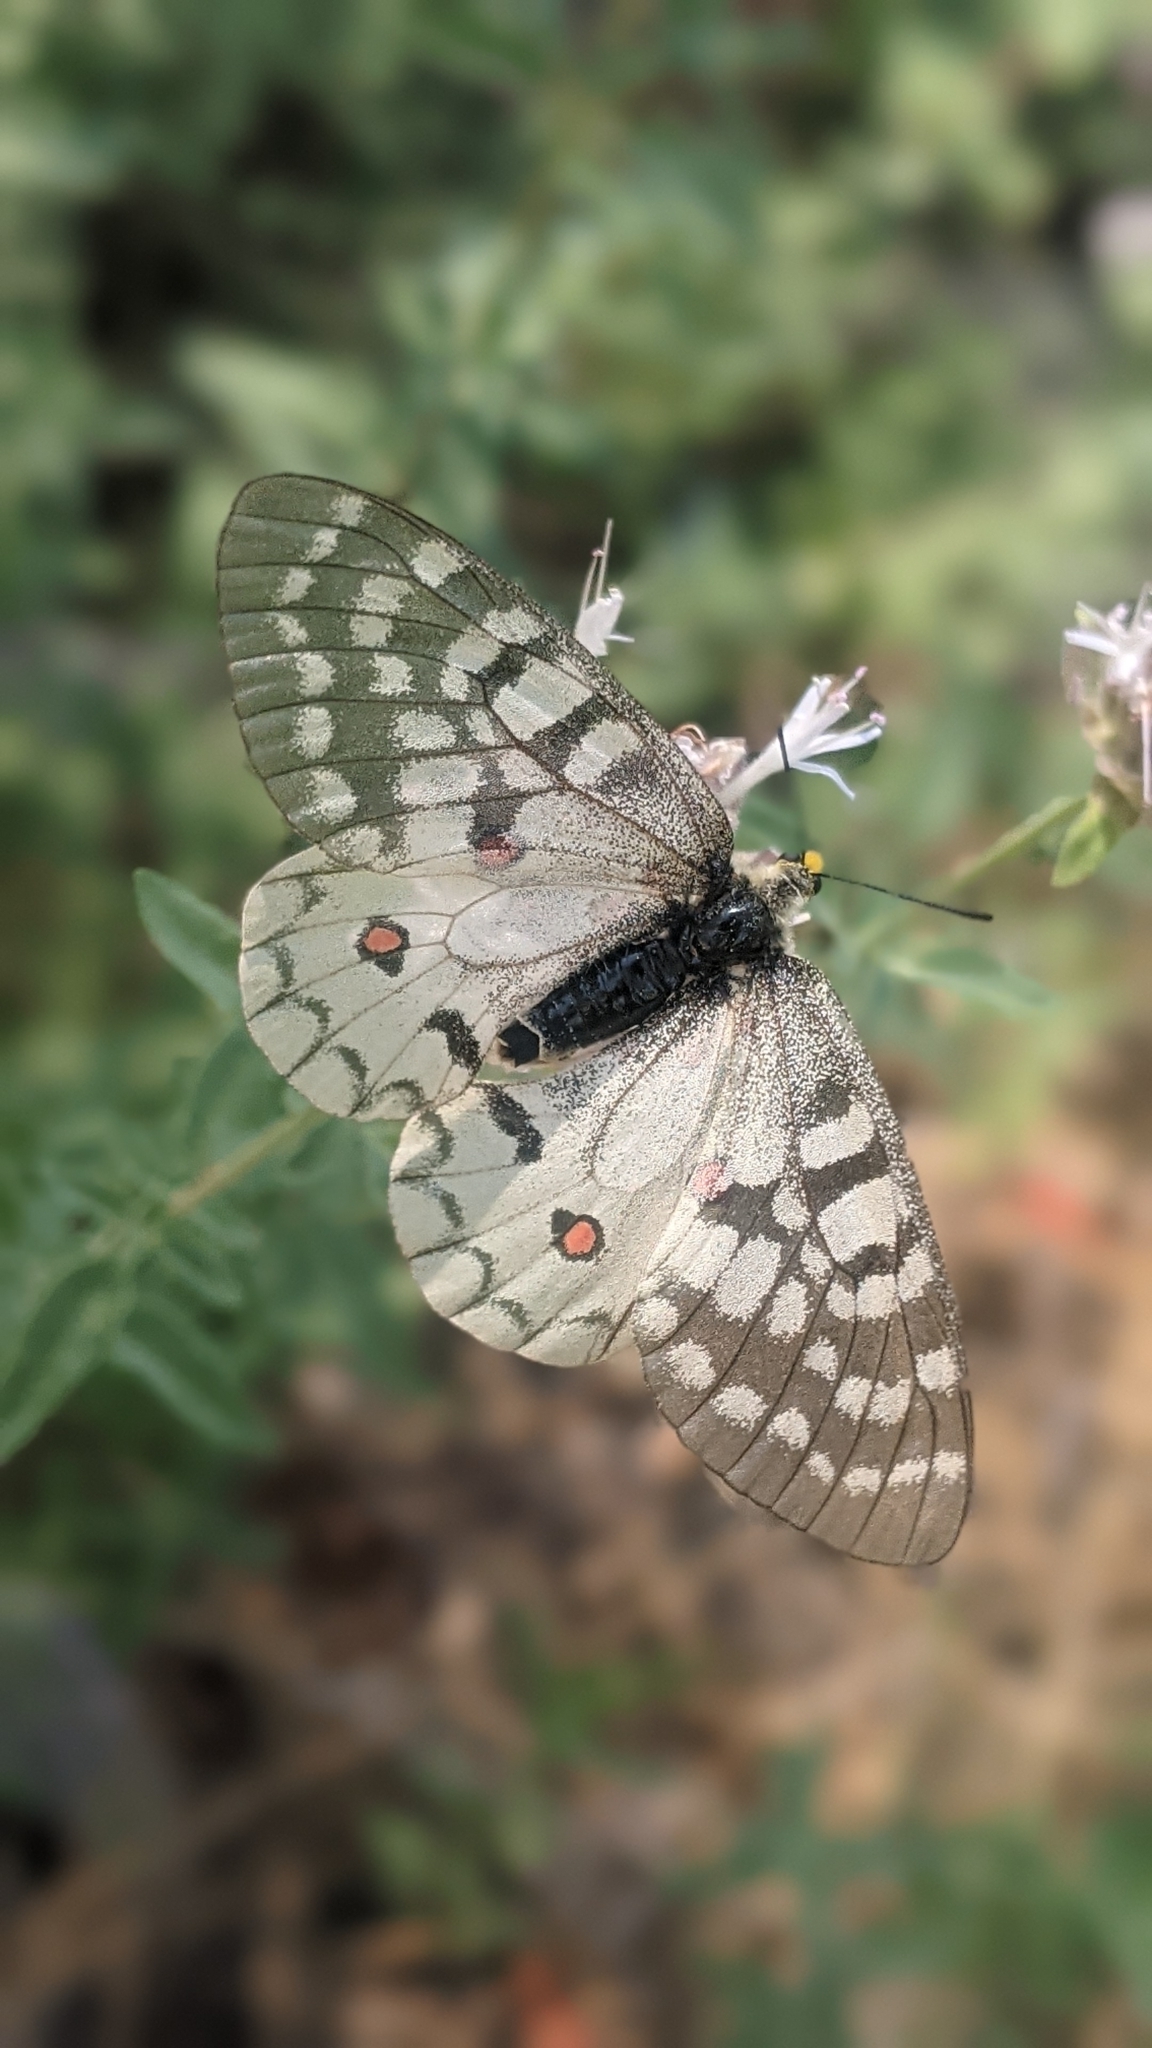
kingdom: Animalia
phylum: Arthropoda
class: Insecta
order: Lepidoptera
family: Papilionidae
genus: Parnassius
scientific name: Parnassius clodius
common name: American apollo
